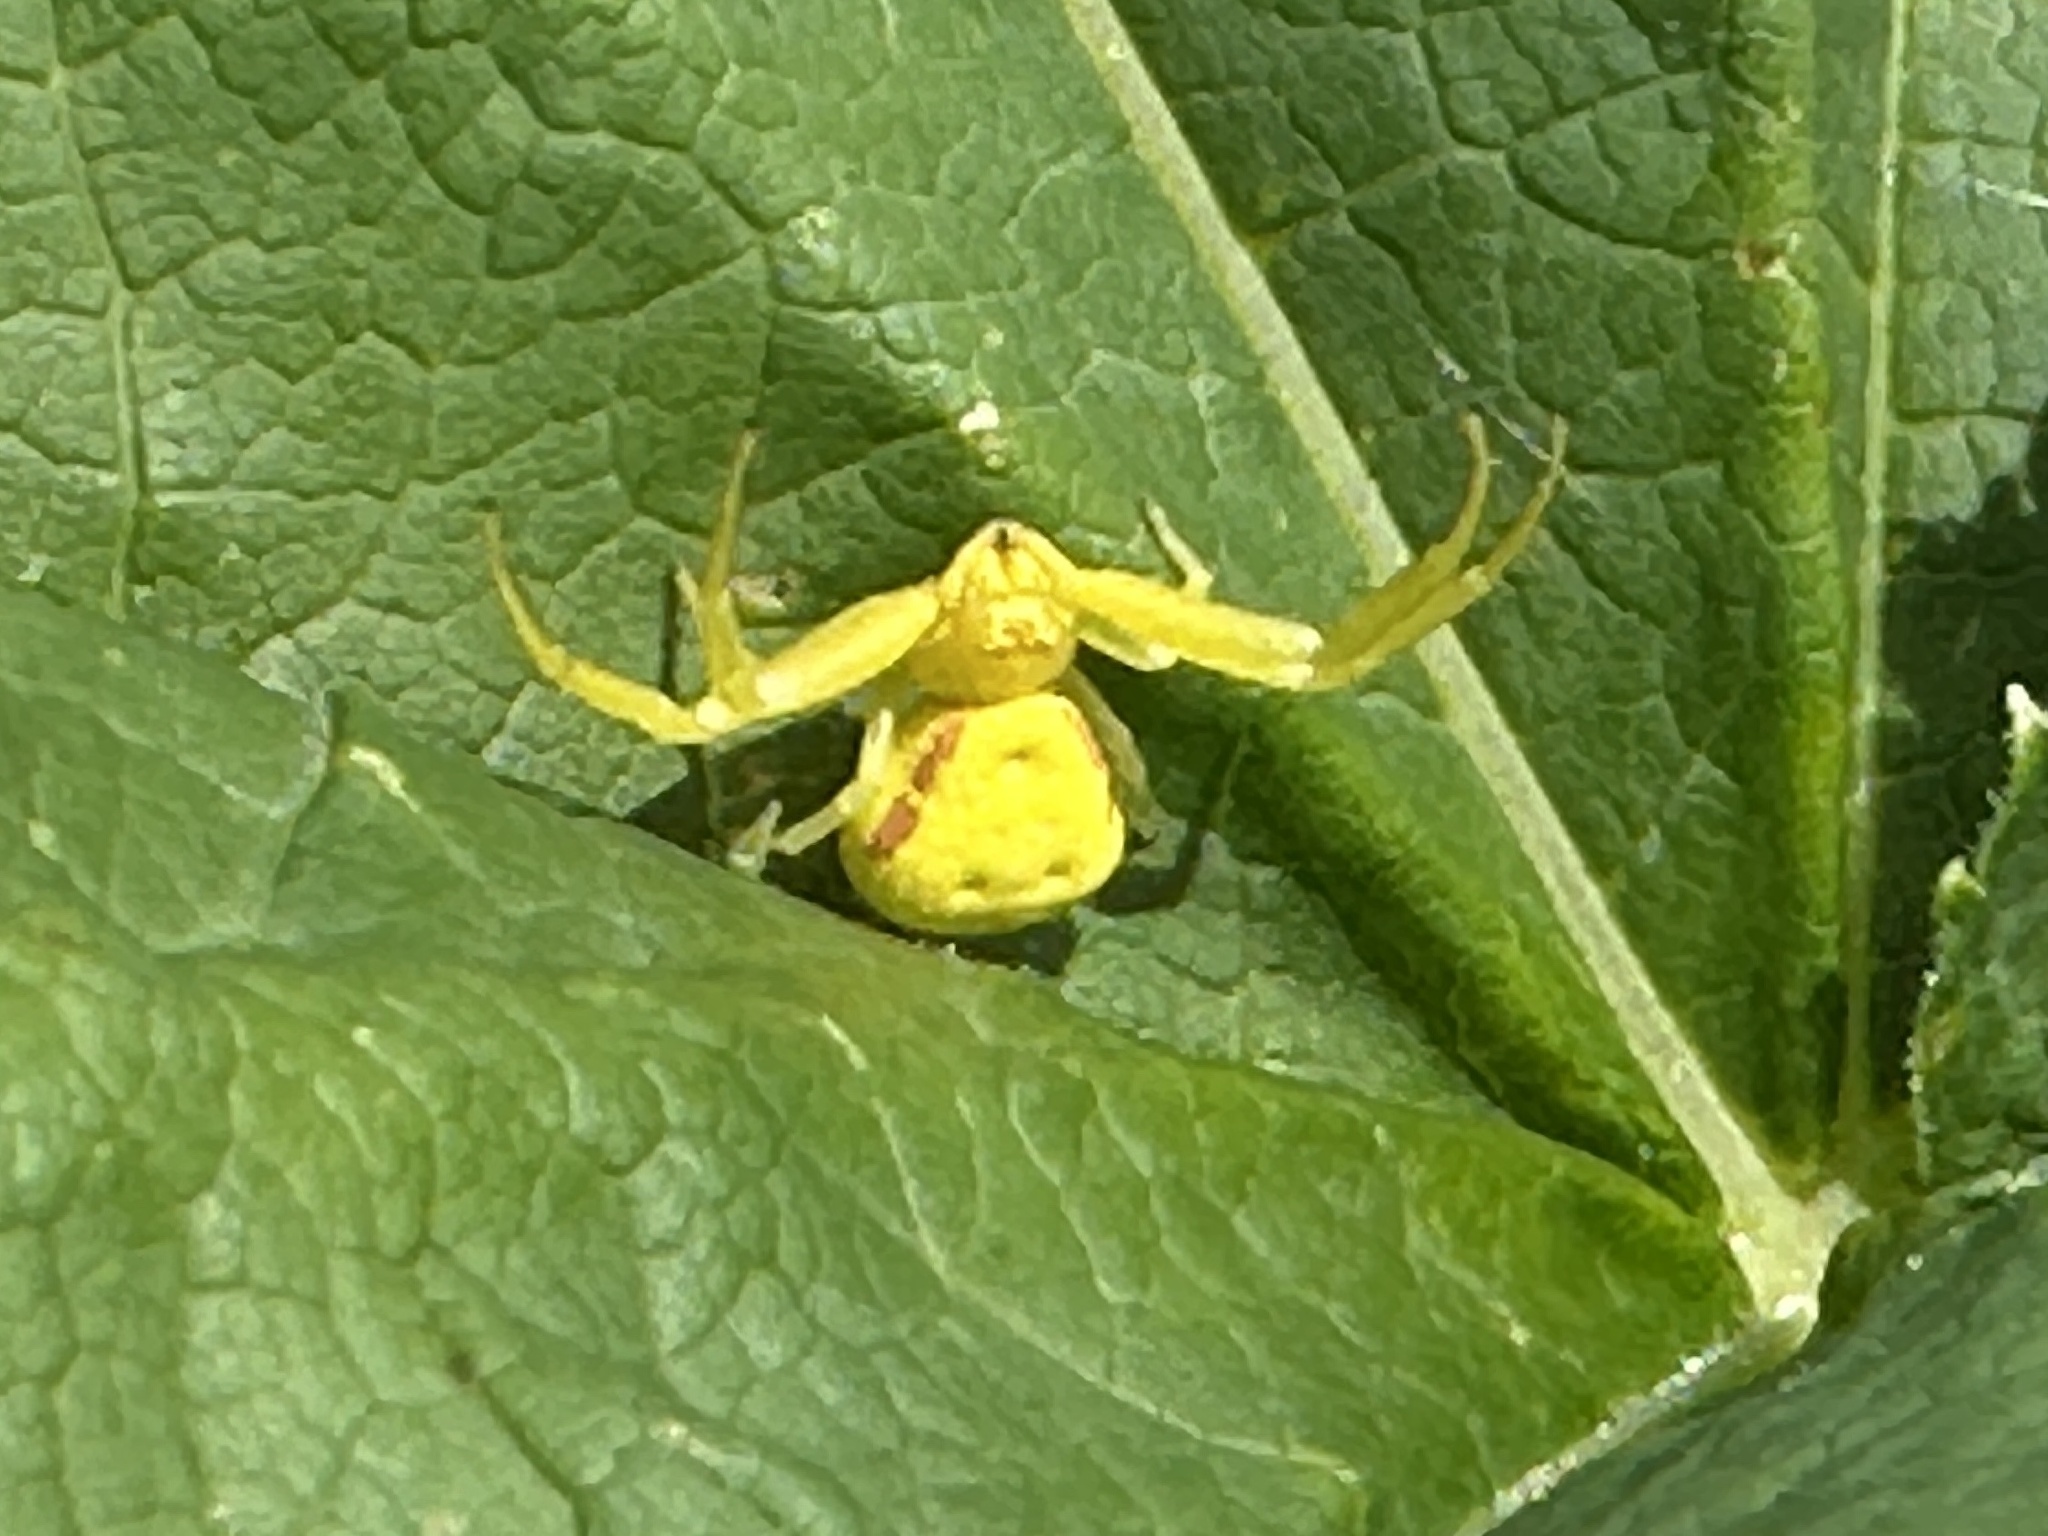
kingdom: Animalia
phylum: Arthropoda
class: Arachnida
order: Araneae
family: Thomisidae
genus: Misumena
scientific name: Misumena vatia
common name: Goldenrod crab spider
